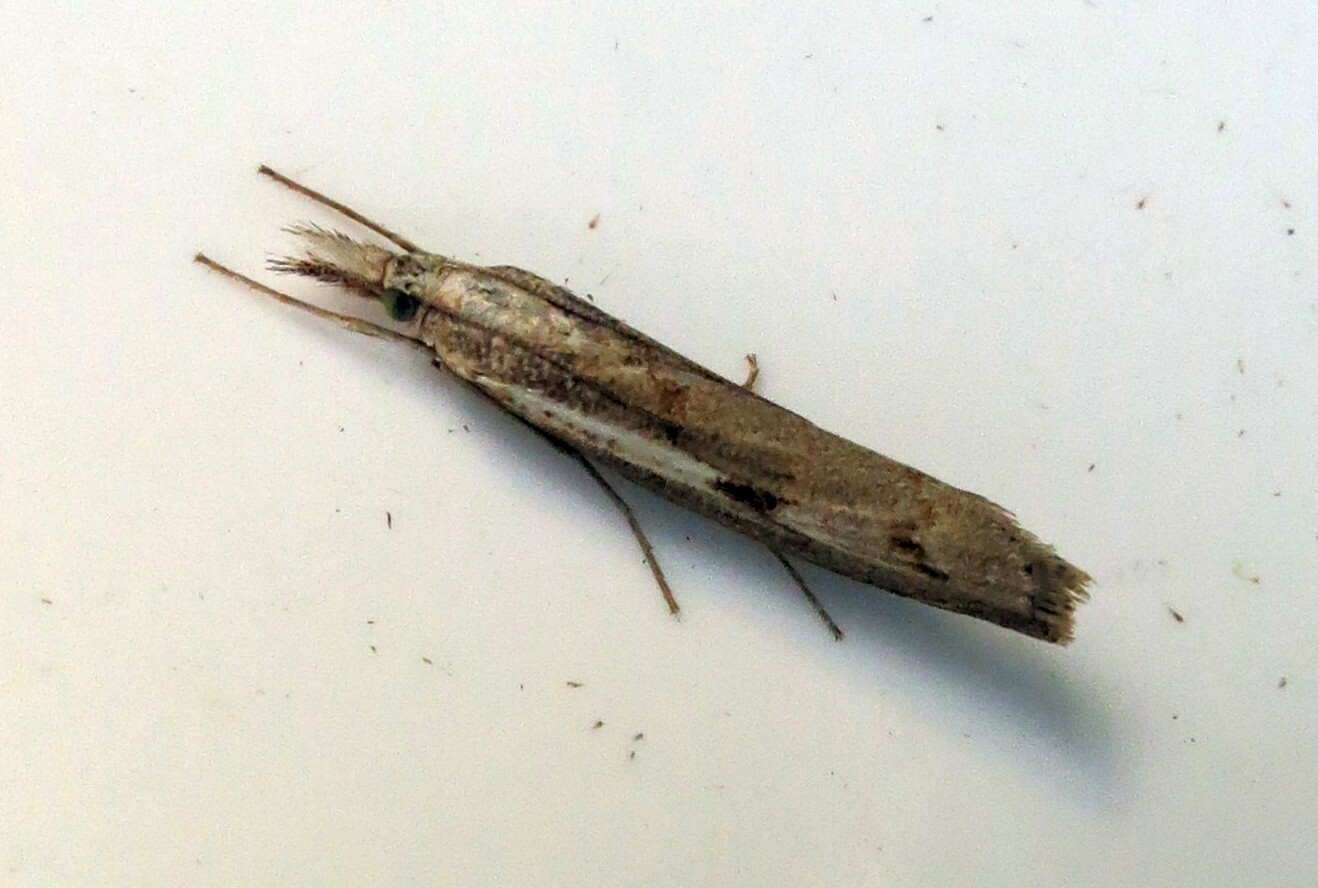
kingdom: Animalia
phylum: Arthropoda
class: Insecta
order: Lepidoptera
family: Crambidae
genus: Agriphila
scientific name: Agriphila geniculea
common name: Elbow-stripe grass-veneer
